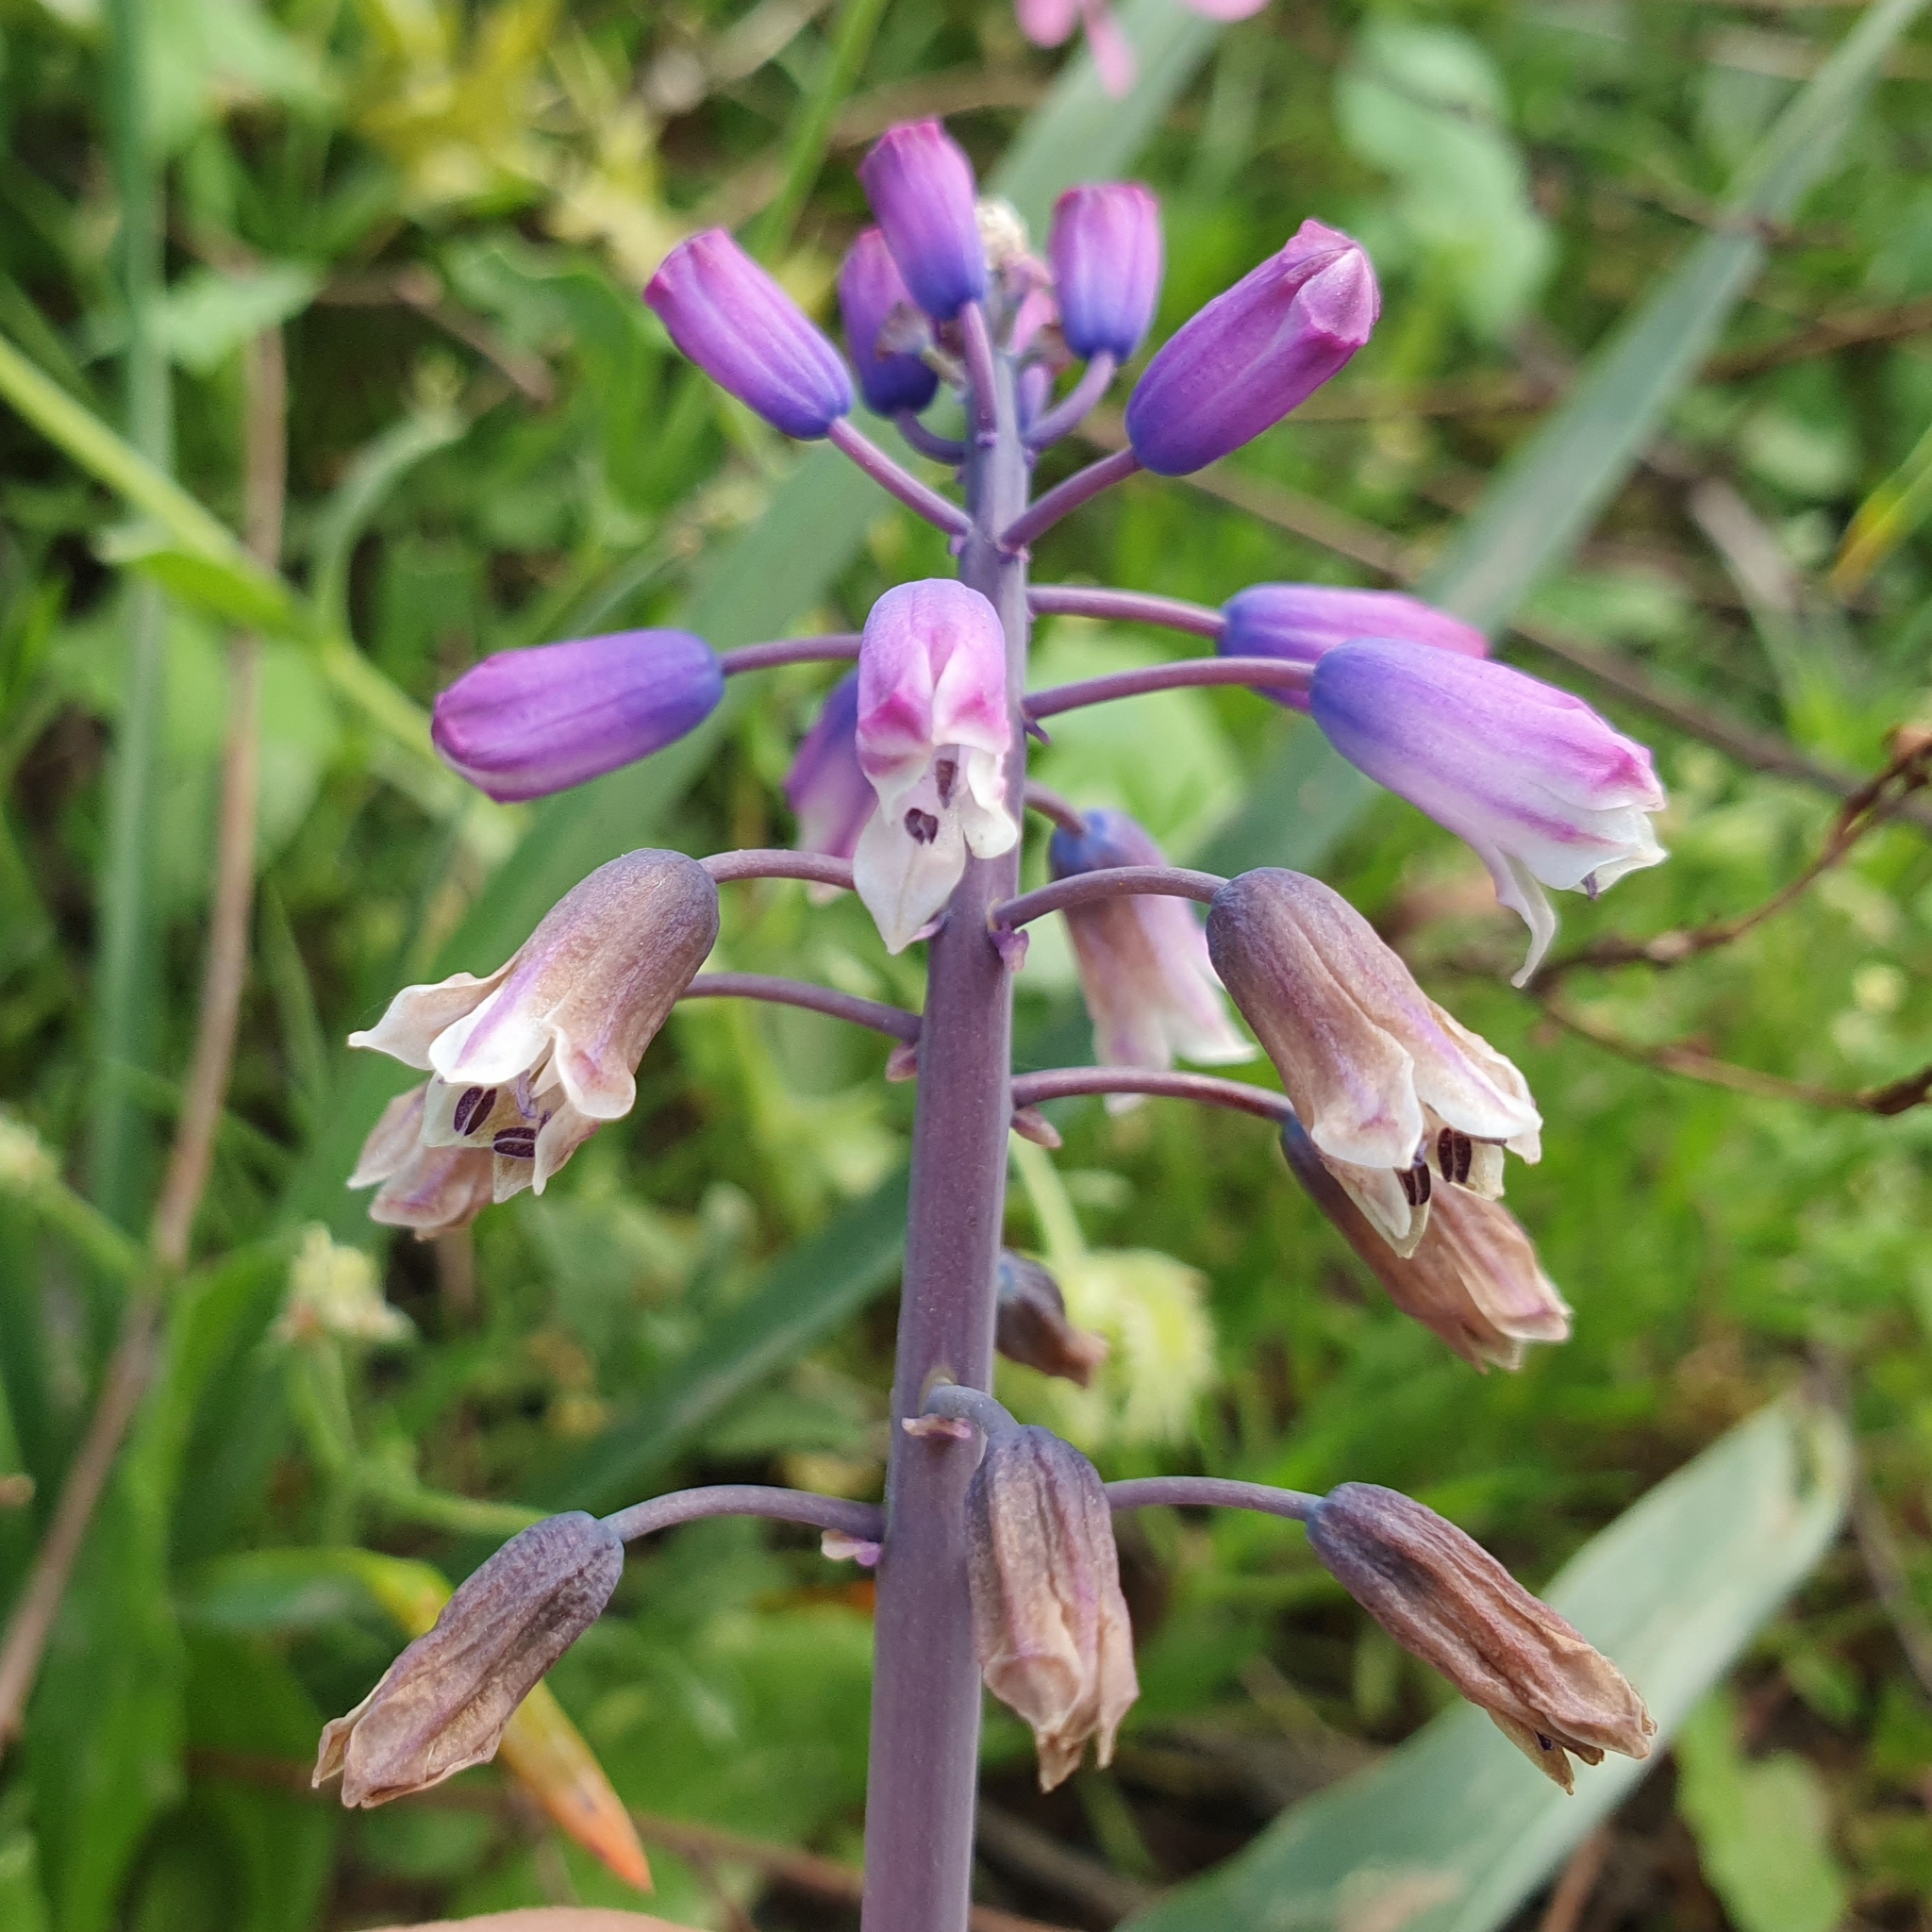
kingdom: Plantae
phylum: Tracheophyta
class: Liliopsida
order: Asparagales
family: Asparagaceae
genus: Bellevalia
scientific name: Bellevalia mauritanica
